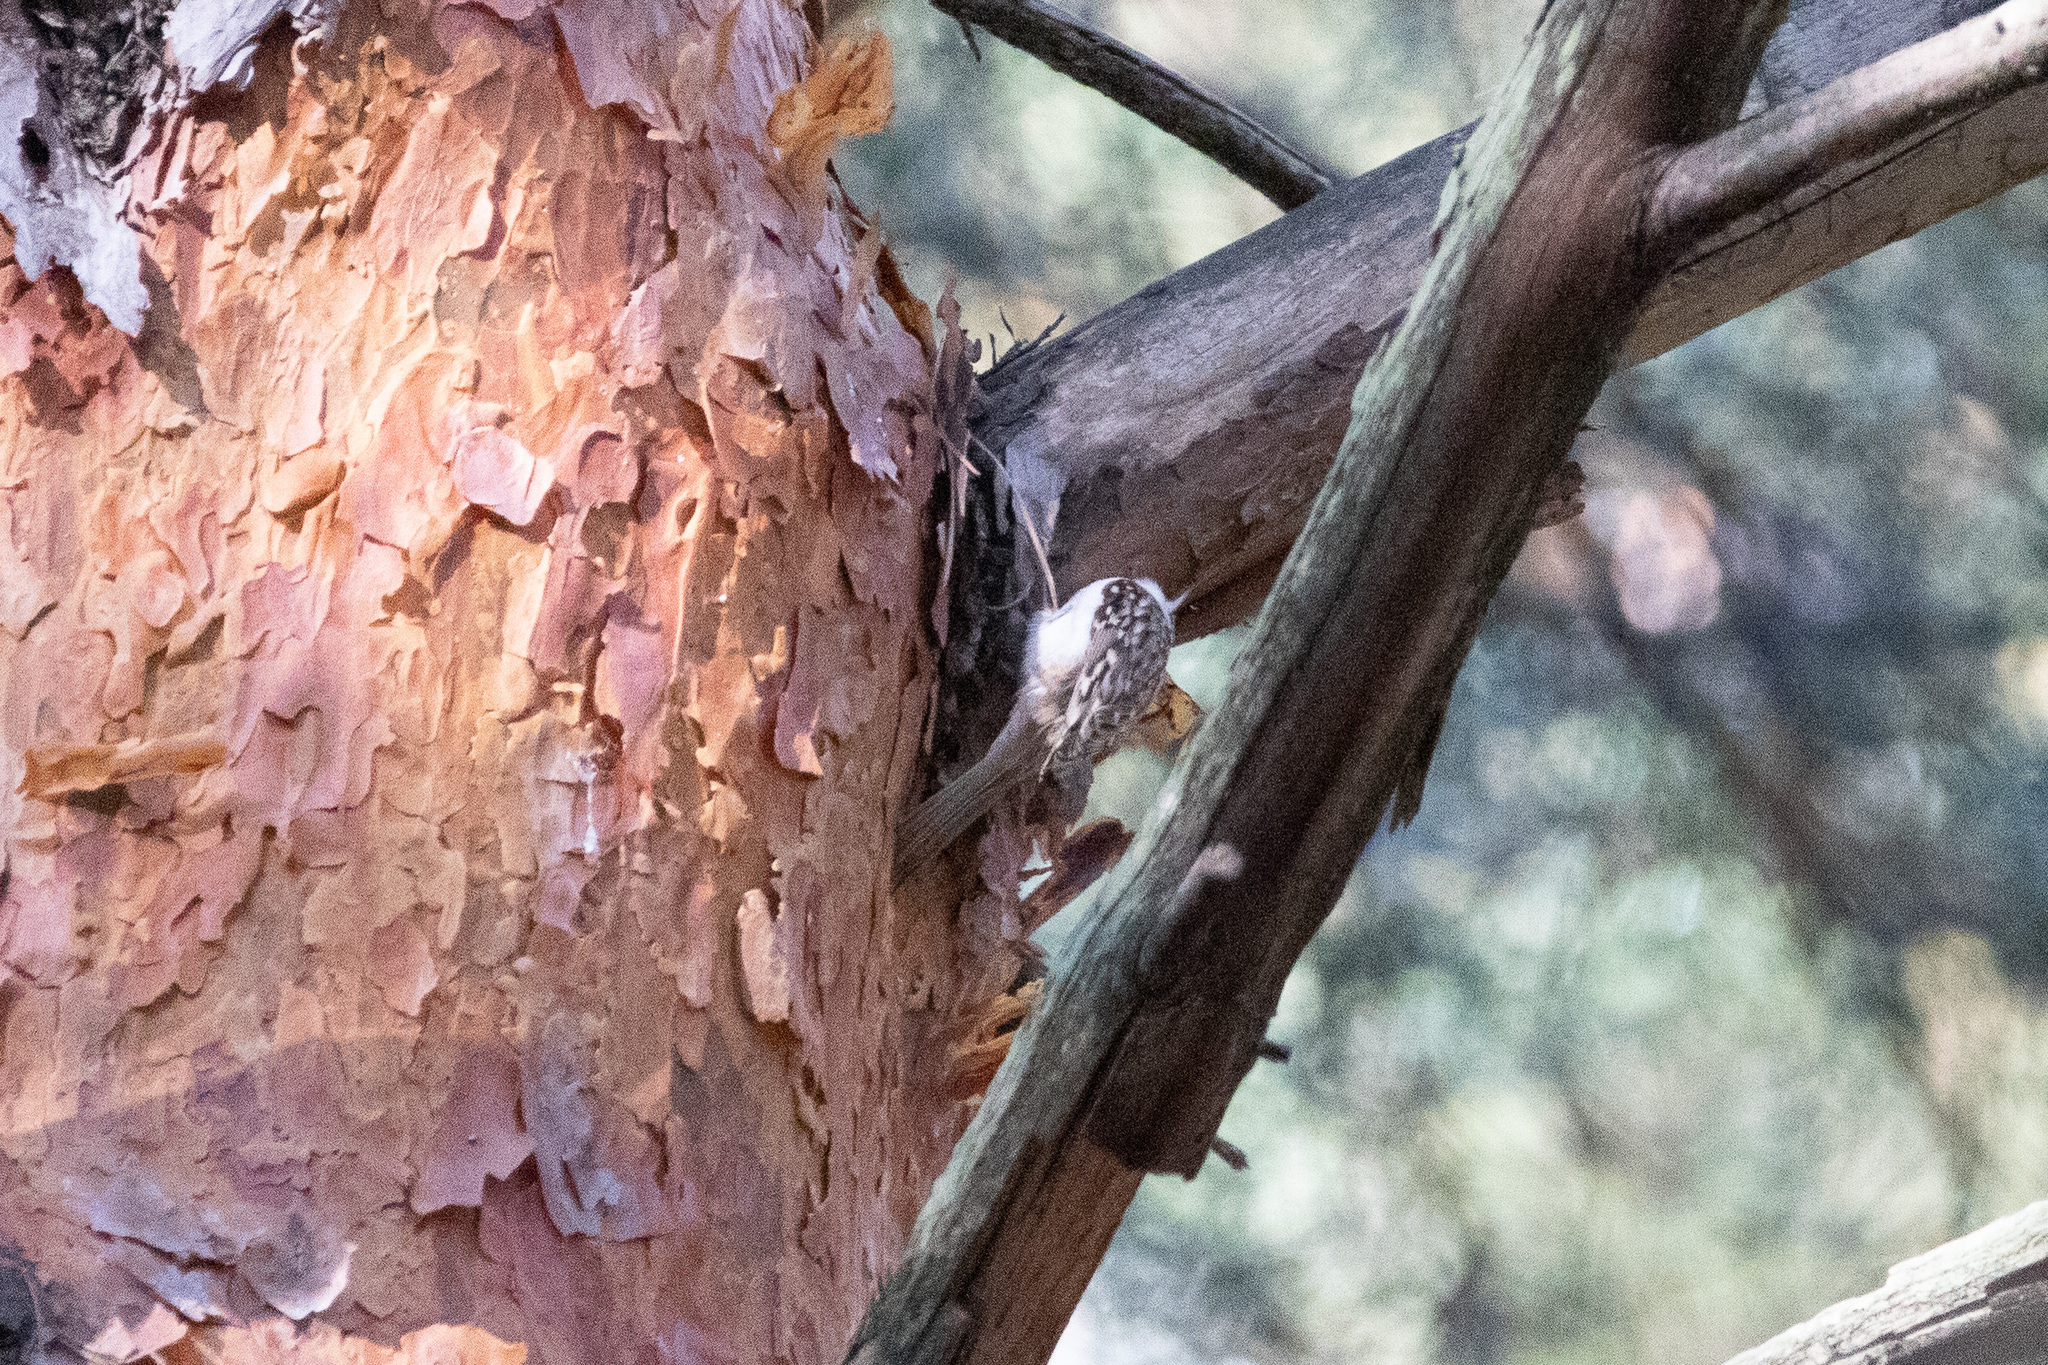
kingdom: Animalia
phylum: Chordata
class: Aves
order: Passeriformes
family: Certhiidae
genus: Certhia
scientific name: Certhia familiaris
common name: Eurasian treecreeper
